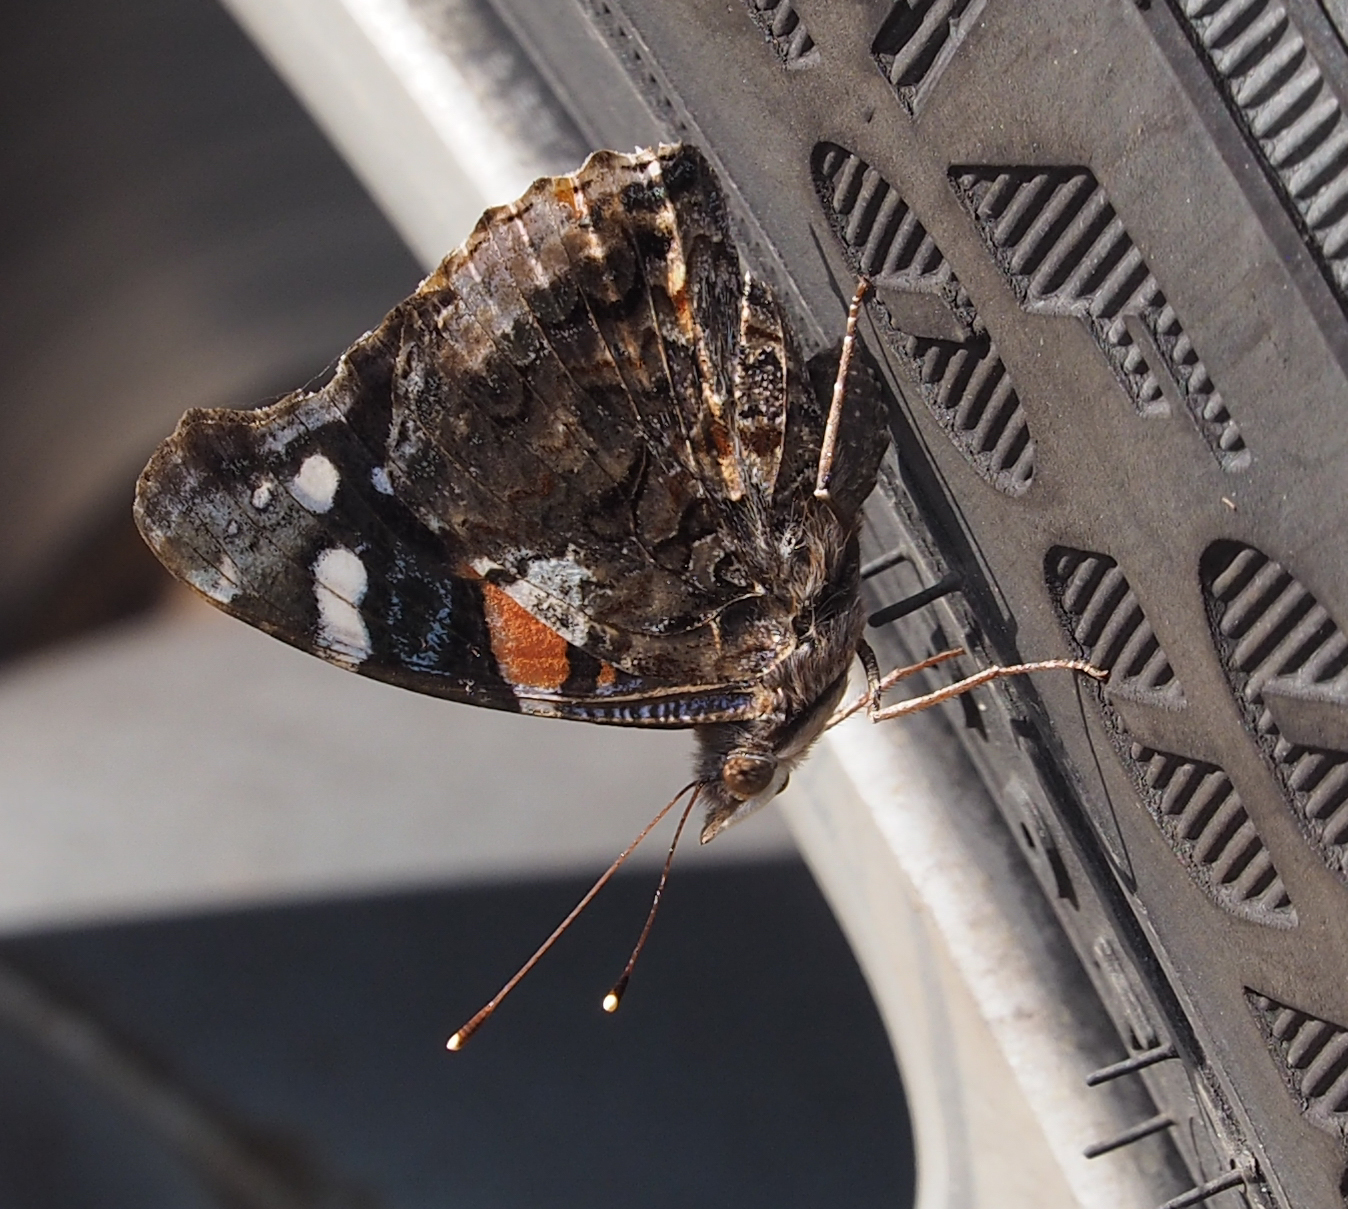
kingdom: Animalia
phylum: Arthropoda
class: Insecta
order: Lepidoptera
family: Nymphalidae
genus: Vanessa
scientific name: Vanessa atalanta
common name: Red admiral
